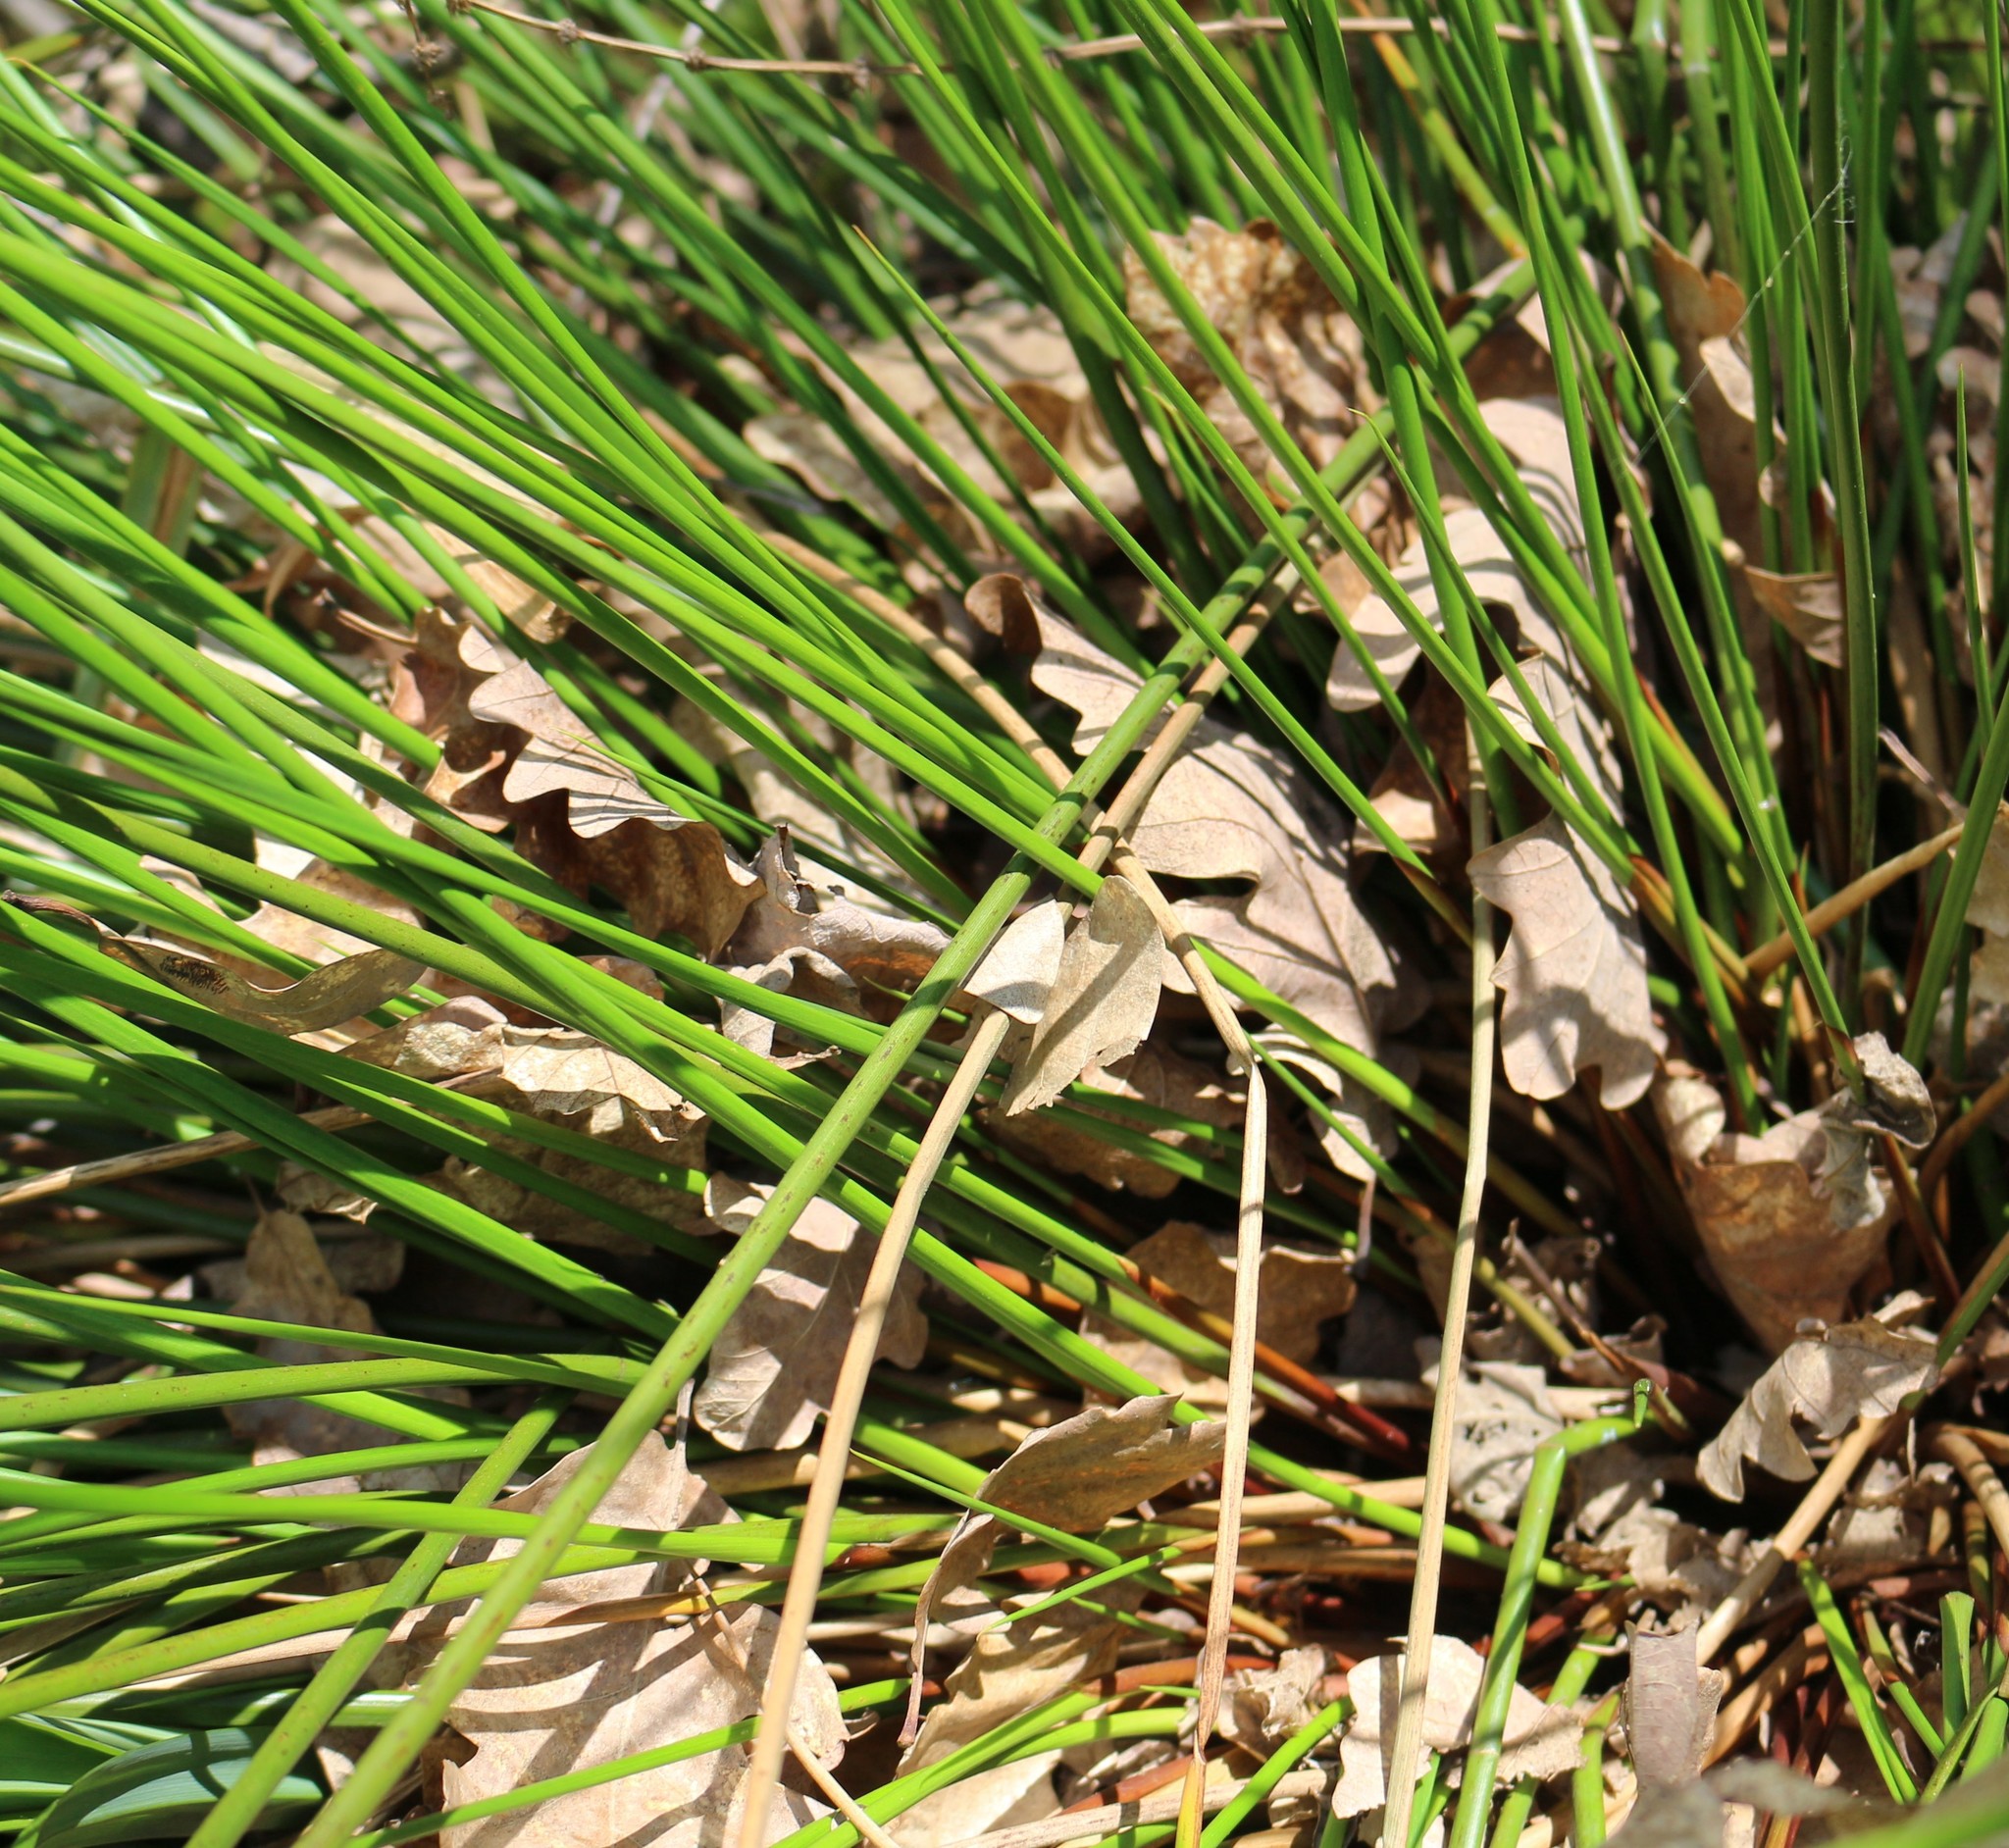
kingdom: Plantae
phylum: Tracheophyta
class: Liliopsida
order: Poales
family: Cyperaceae
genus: Carex
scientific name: Carex pendula
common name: Pendulous sedge
